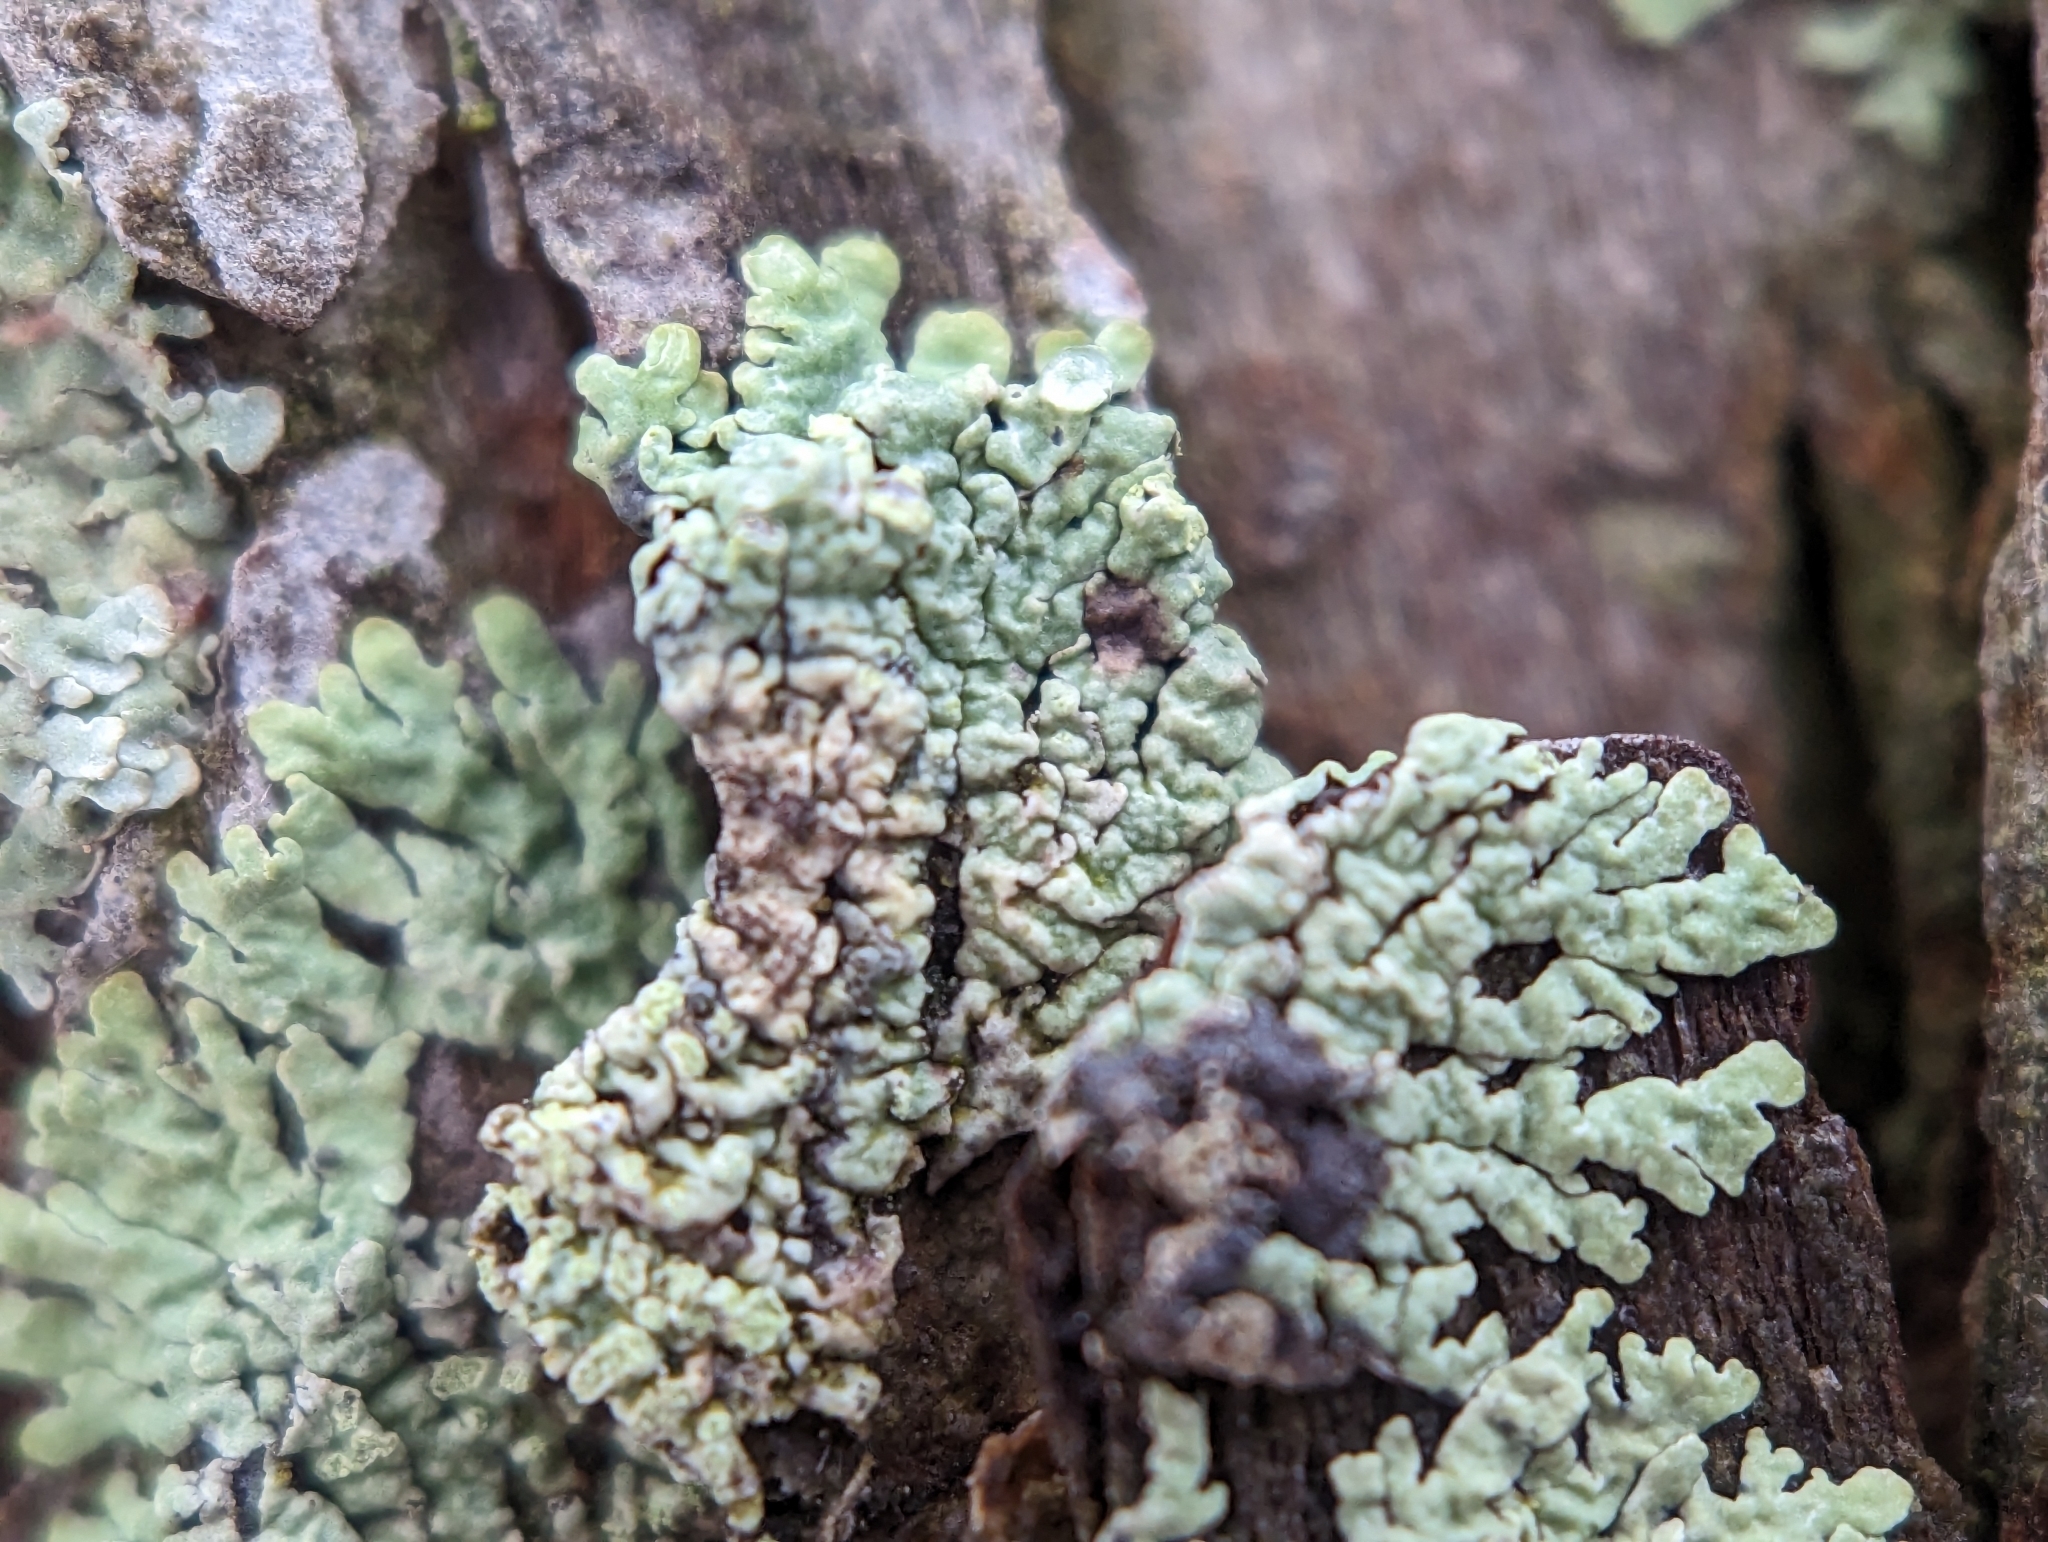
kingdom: Fungi
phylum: Ascomycota
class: Lecanoromycetes
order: Lecanorales
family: Parmeliaceae
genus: Parmeliopsis
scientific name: Parmeliopsis ambigua
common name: Green starburst lichen
